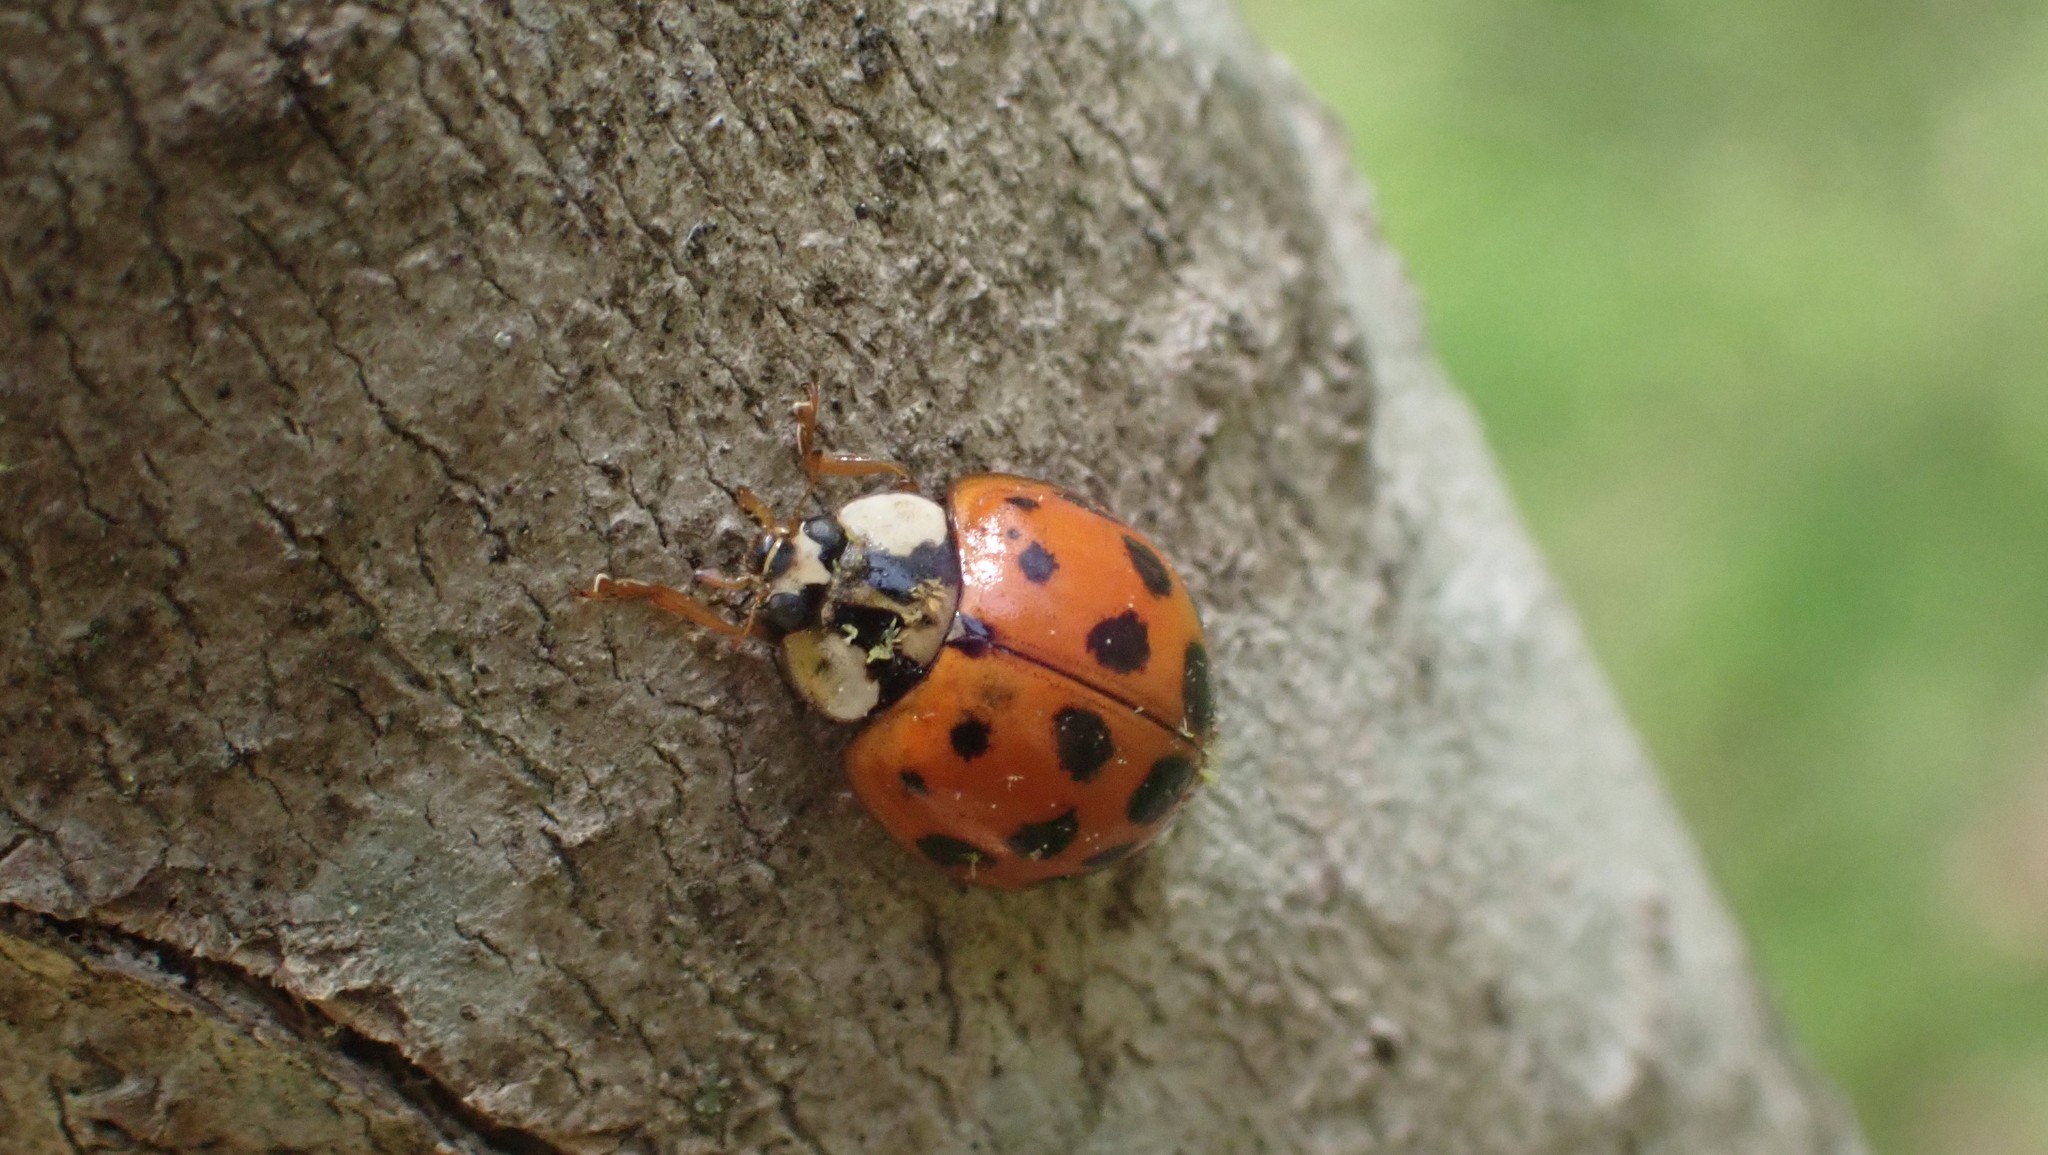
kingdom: Animalia
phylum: Arthropoda
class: Insecta
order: Coleoptera
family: Coccinellidae
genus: Harmonia
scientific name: Harmonia axyridis
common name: Harlequin ladybird
